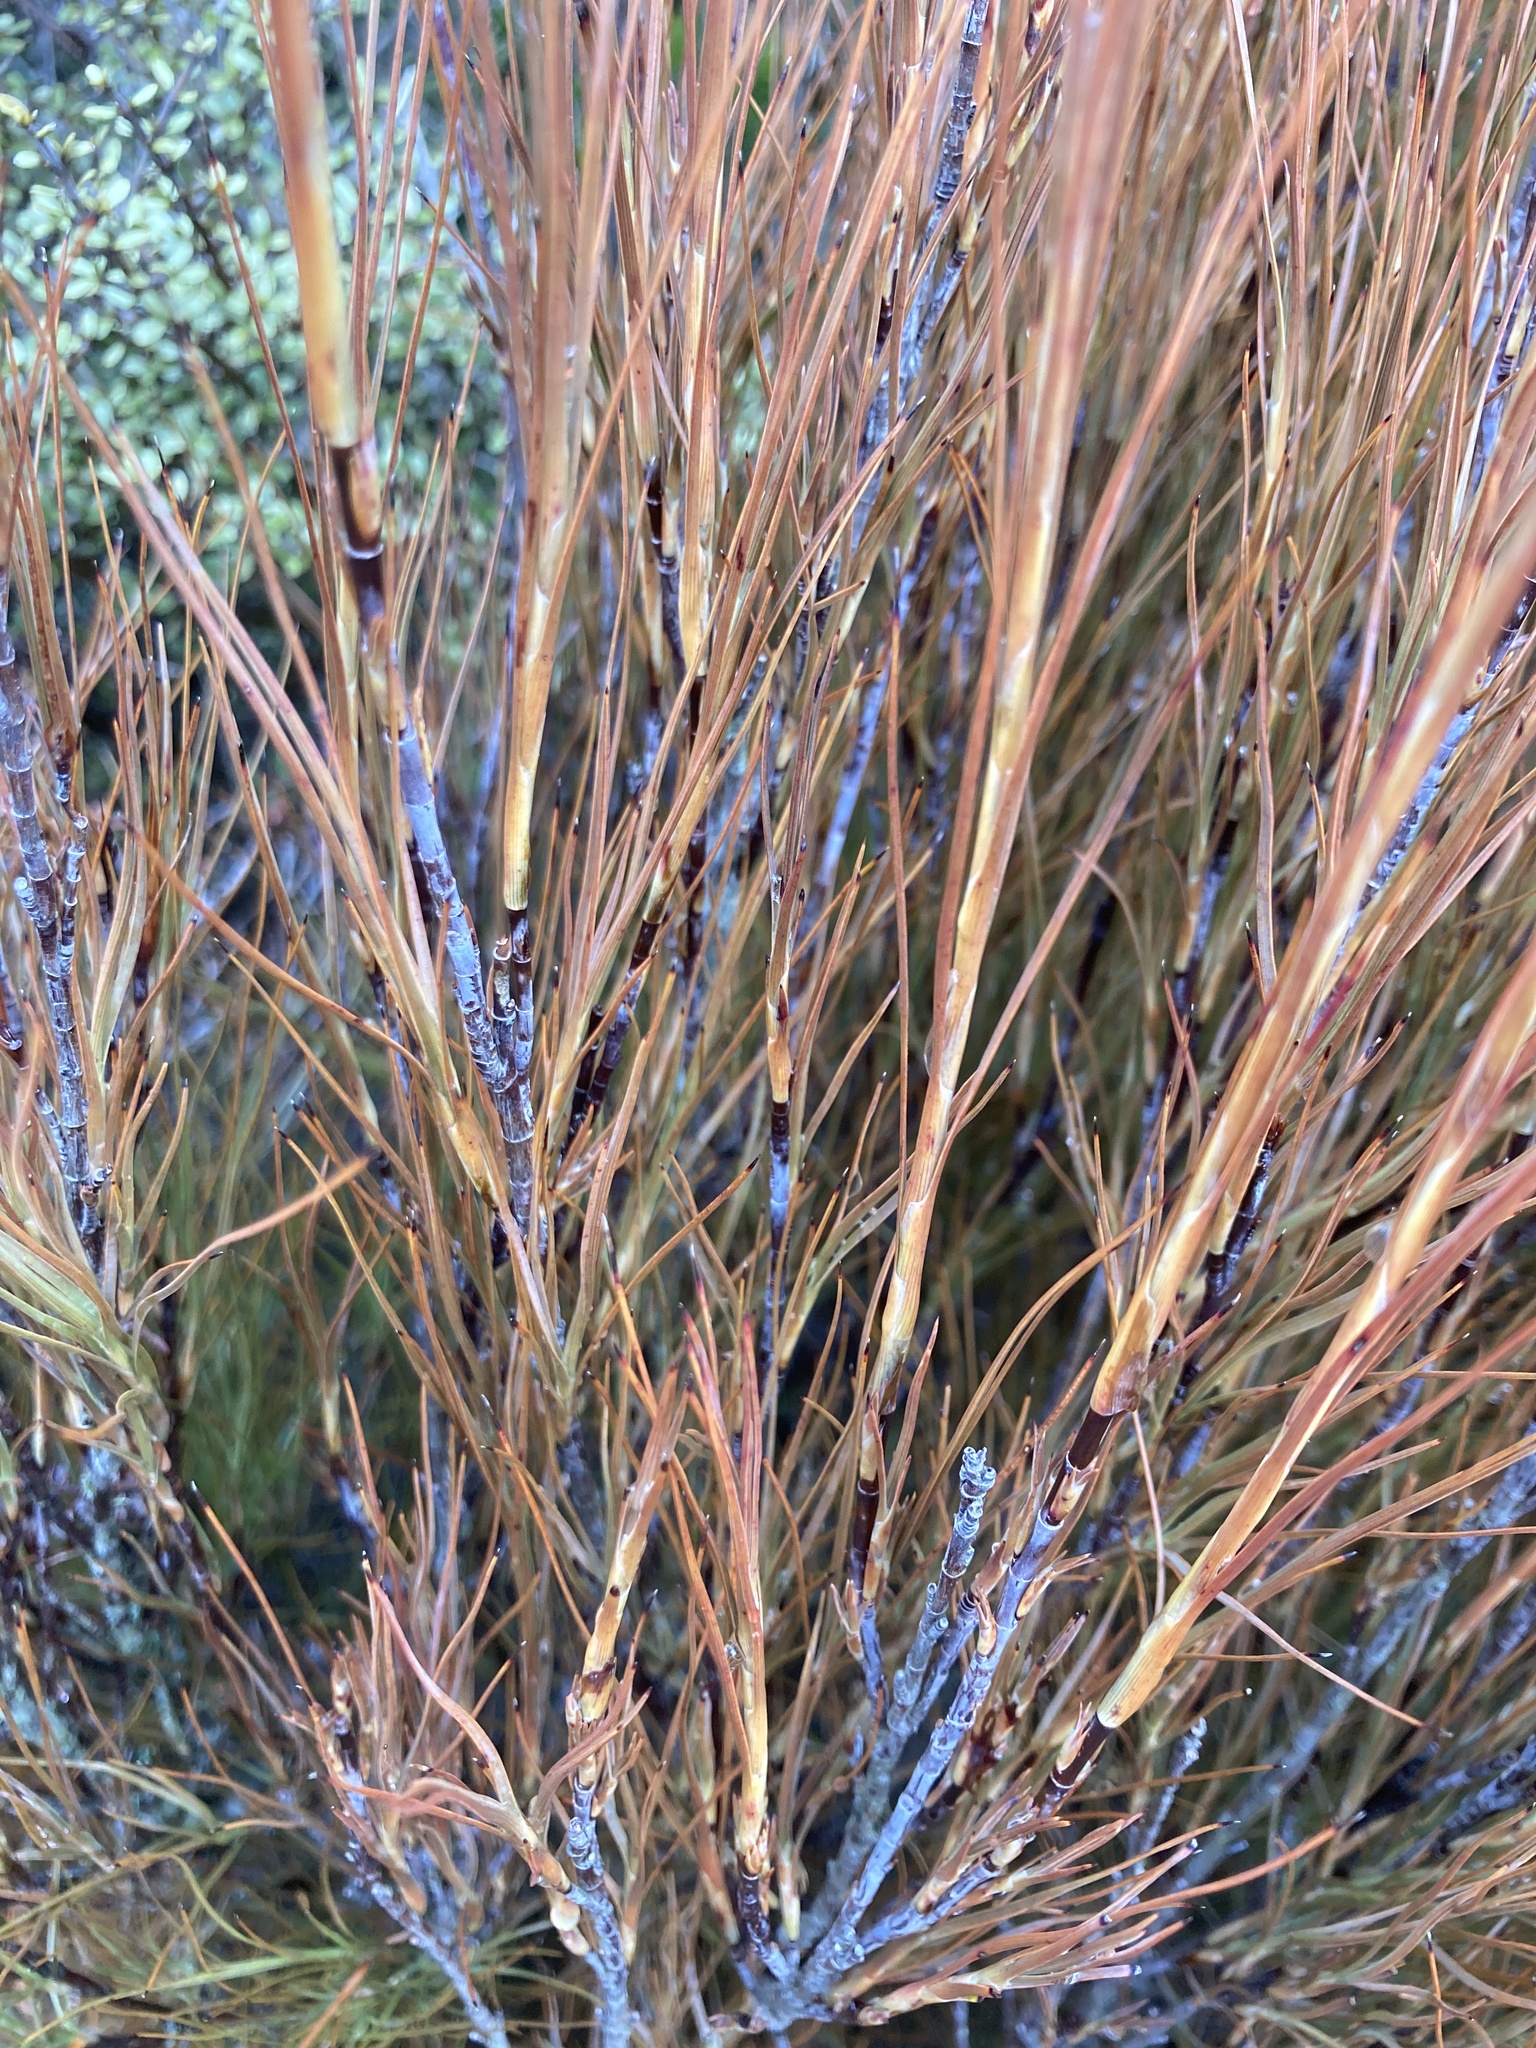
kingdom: Plantae
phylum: Tracheophyta
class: Magnoliopsida
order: Ericales
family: Ericaceae
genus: Dracophyllum
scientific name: Dracophyllum filifolium
